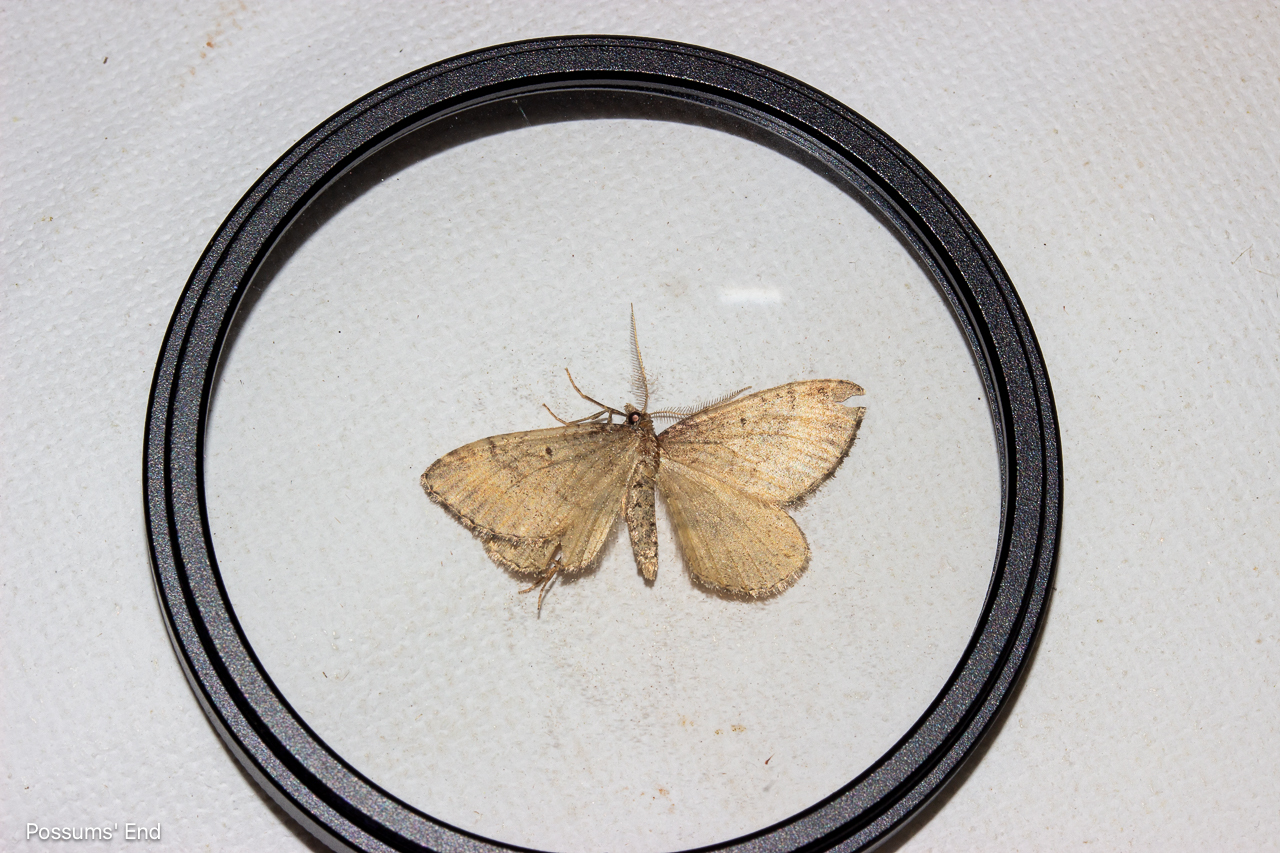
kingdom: Animalia
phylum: Arthropoda
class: Insecta
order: Lepidoptera
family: Geometridae
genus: Asaphodes
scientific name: Asaphodes aegrota
